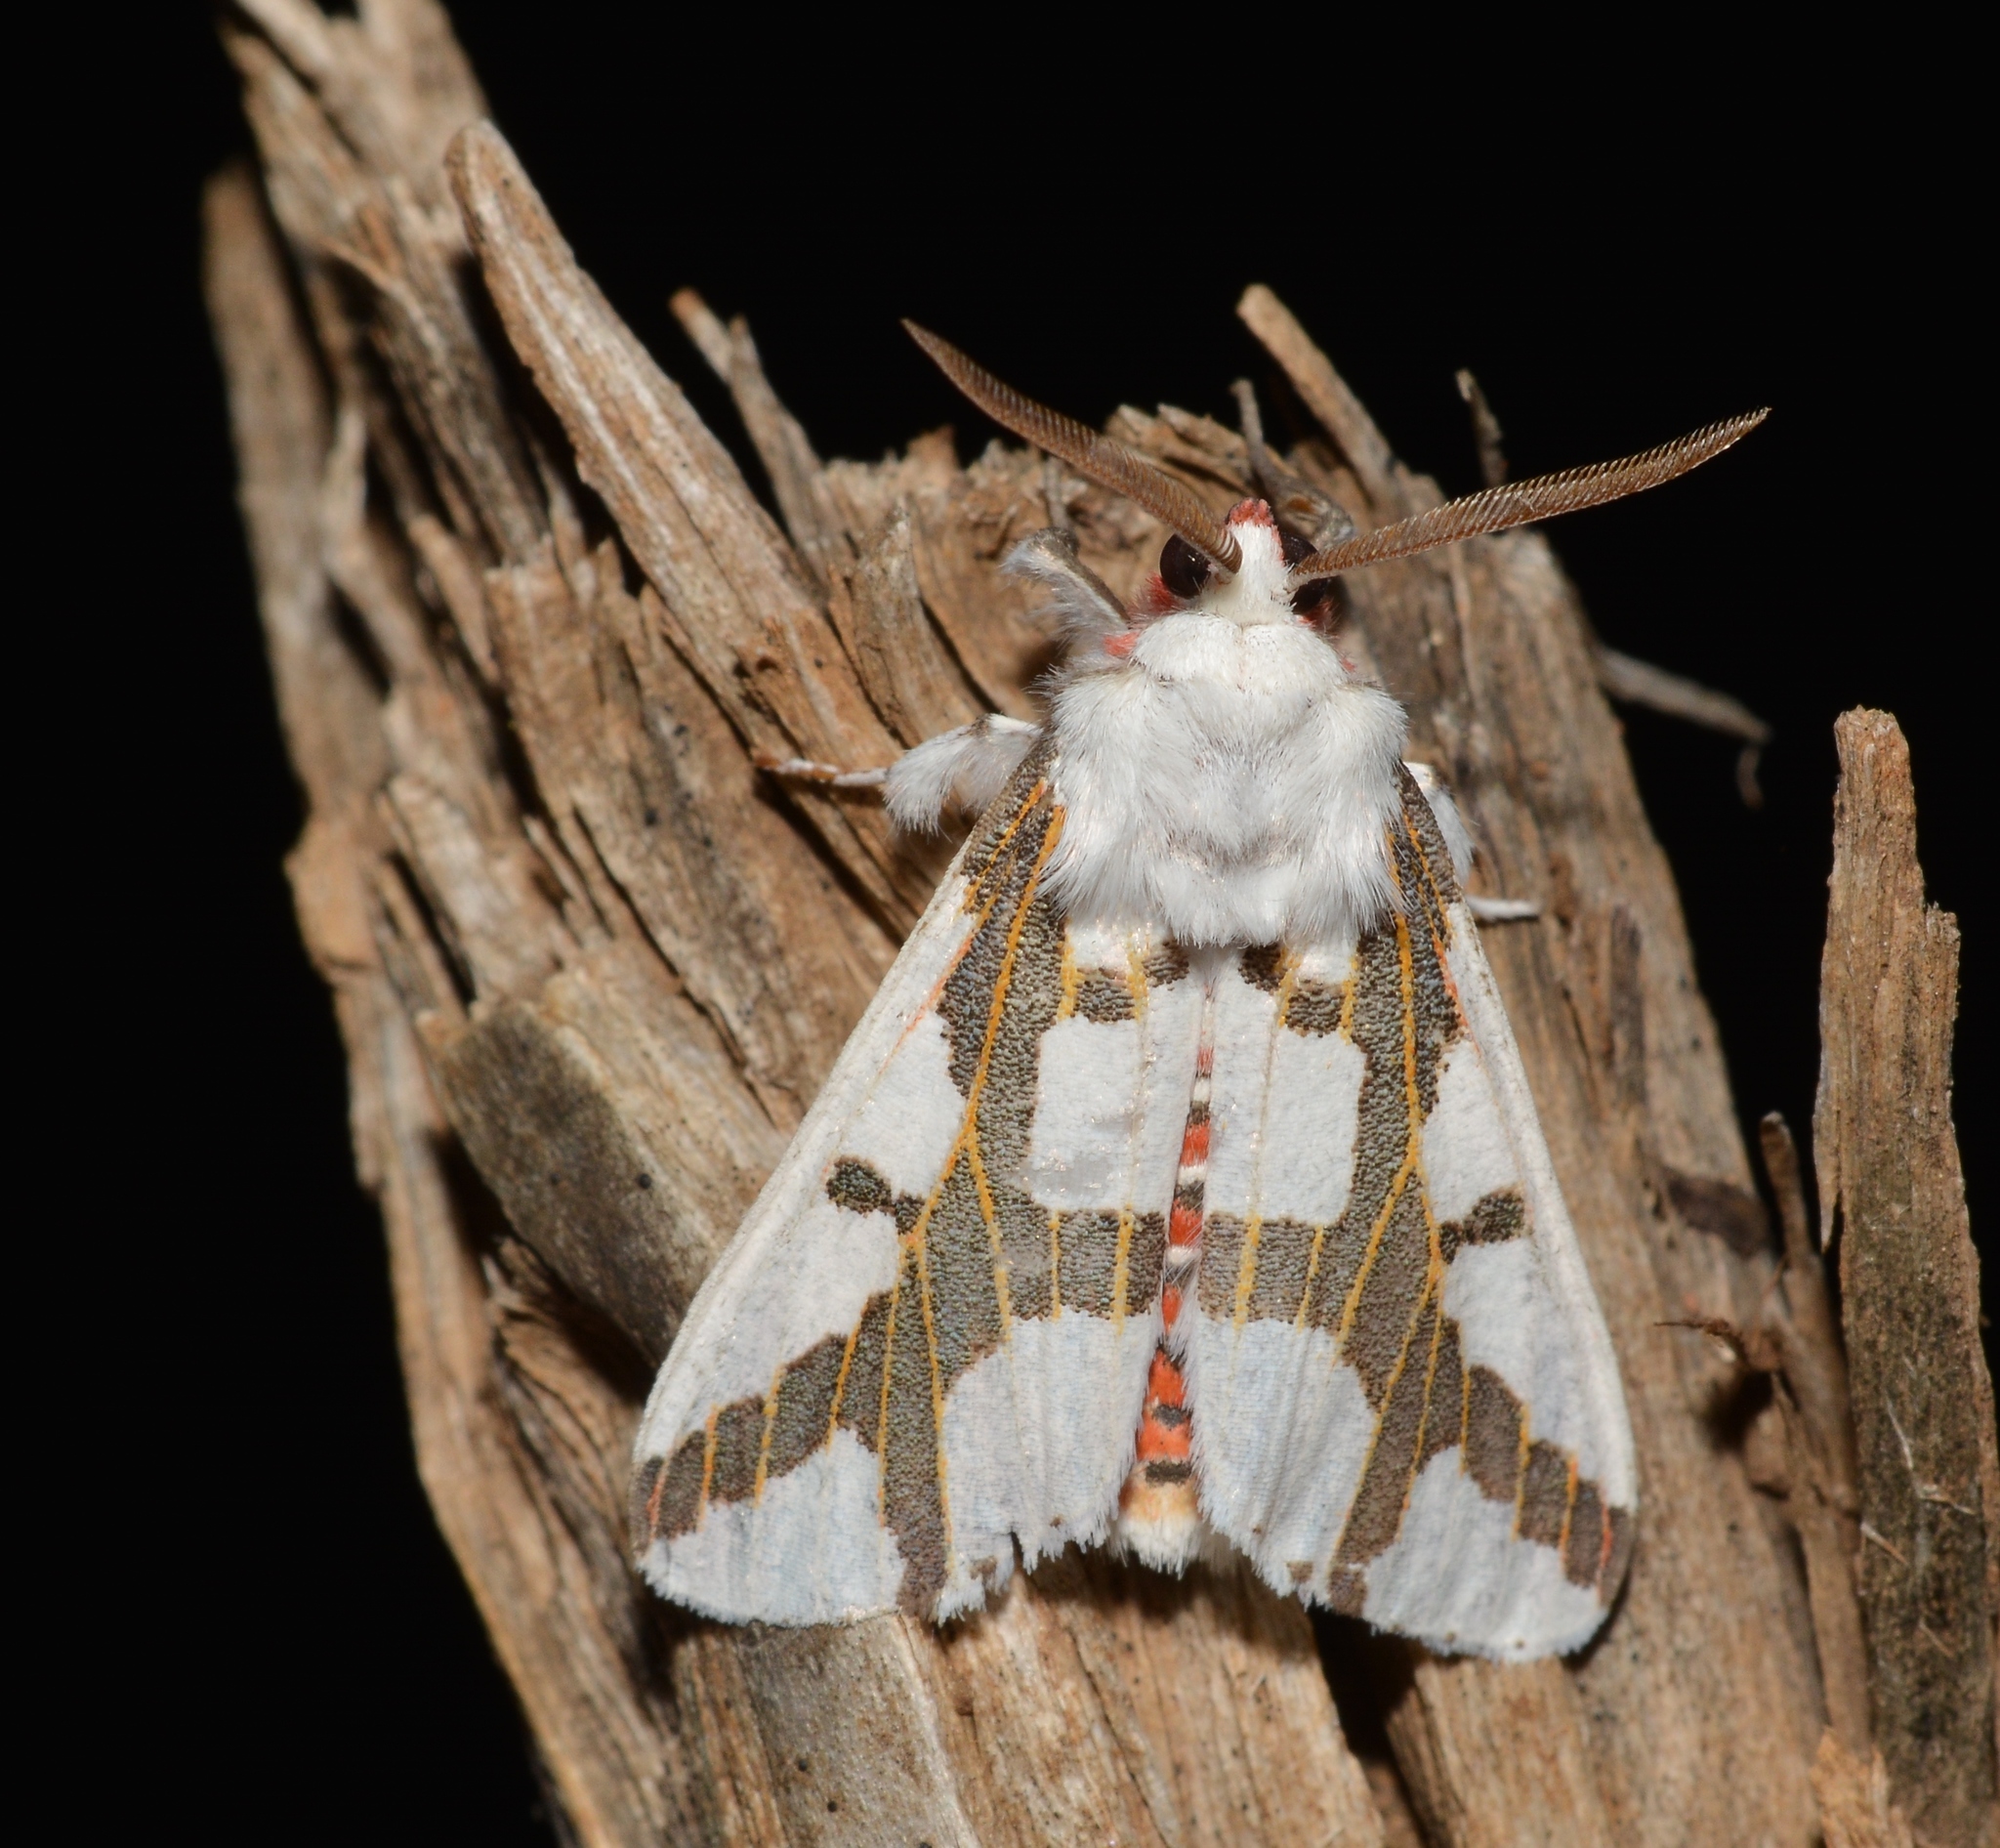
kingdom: Animalia
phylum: Arthropoda
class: Insecta
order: Lepidoptera
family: Erebidae
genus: Euerythra
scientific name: Euerythra phasma
